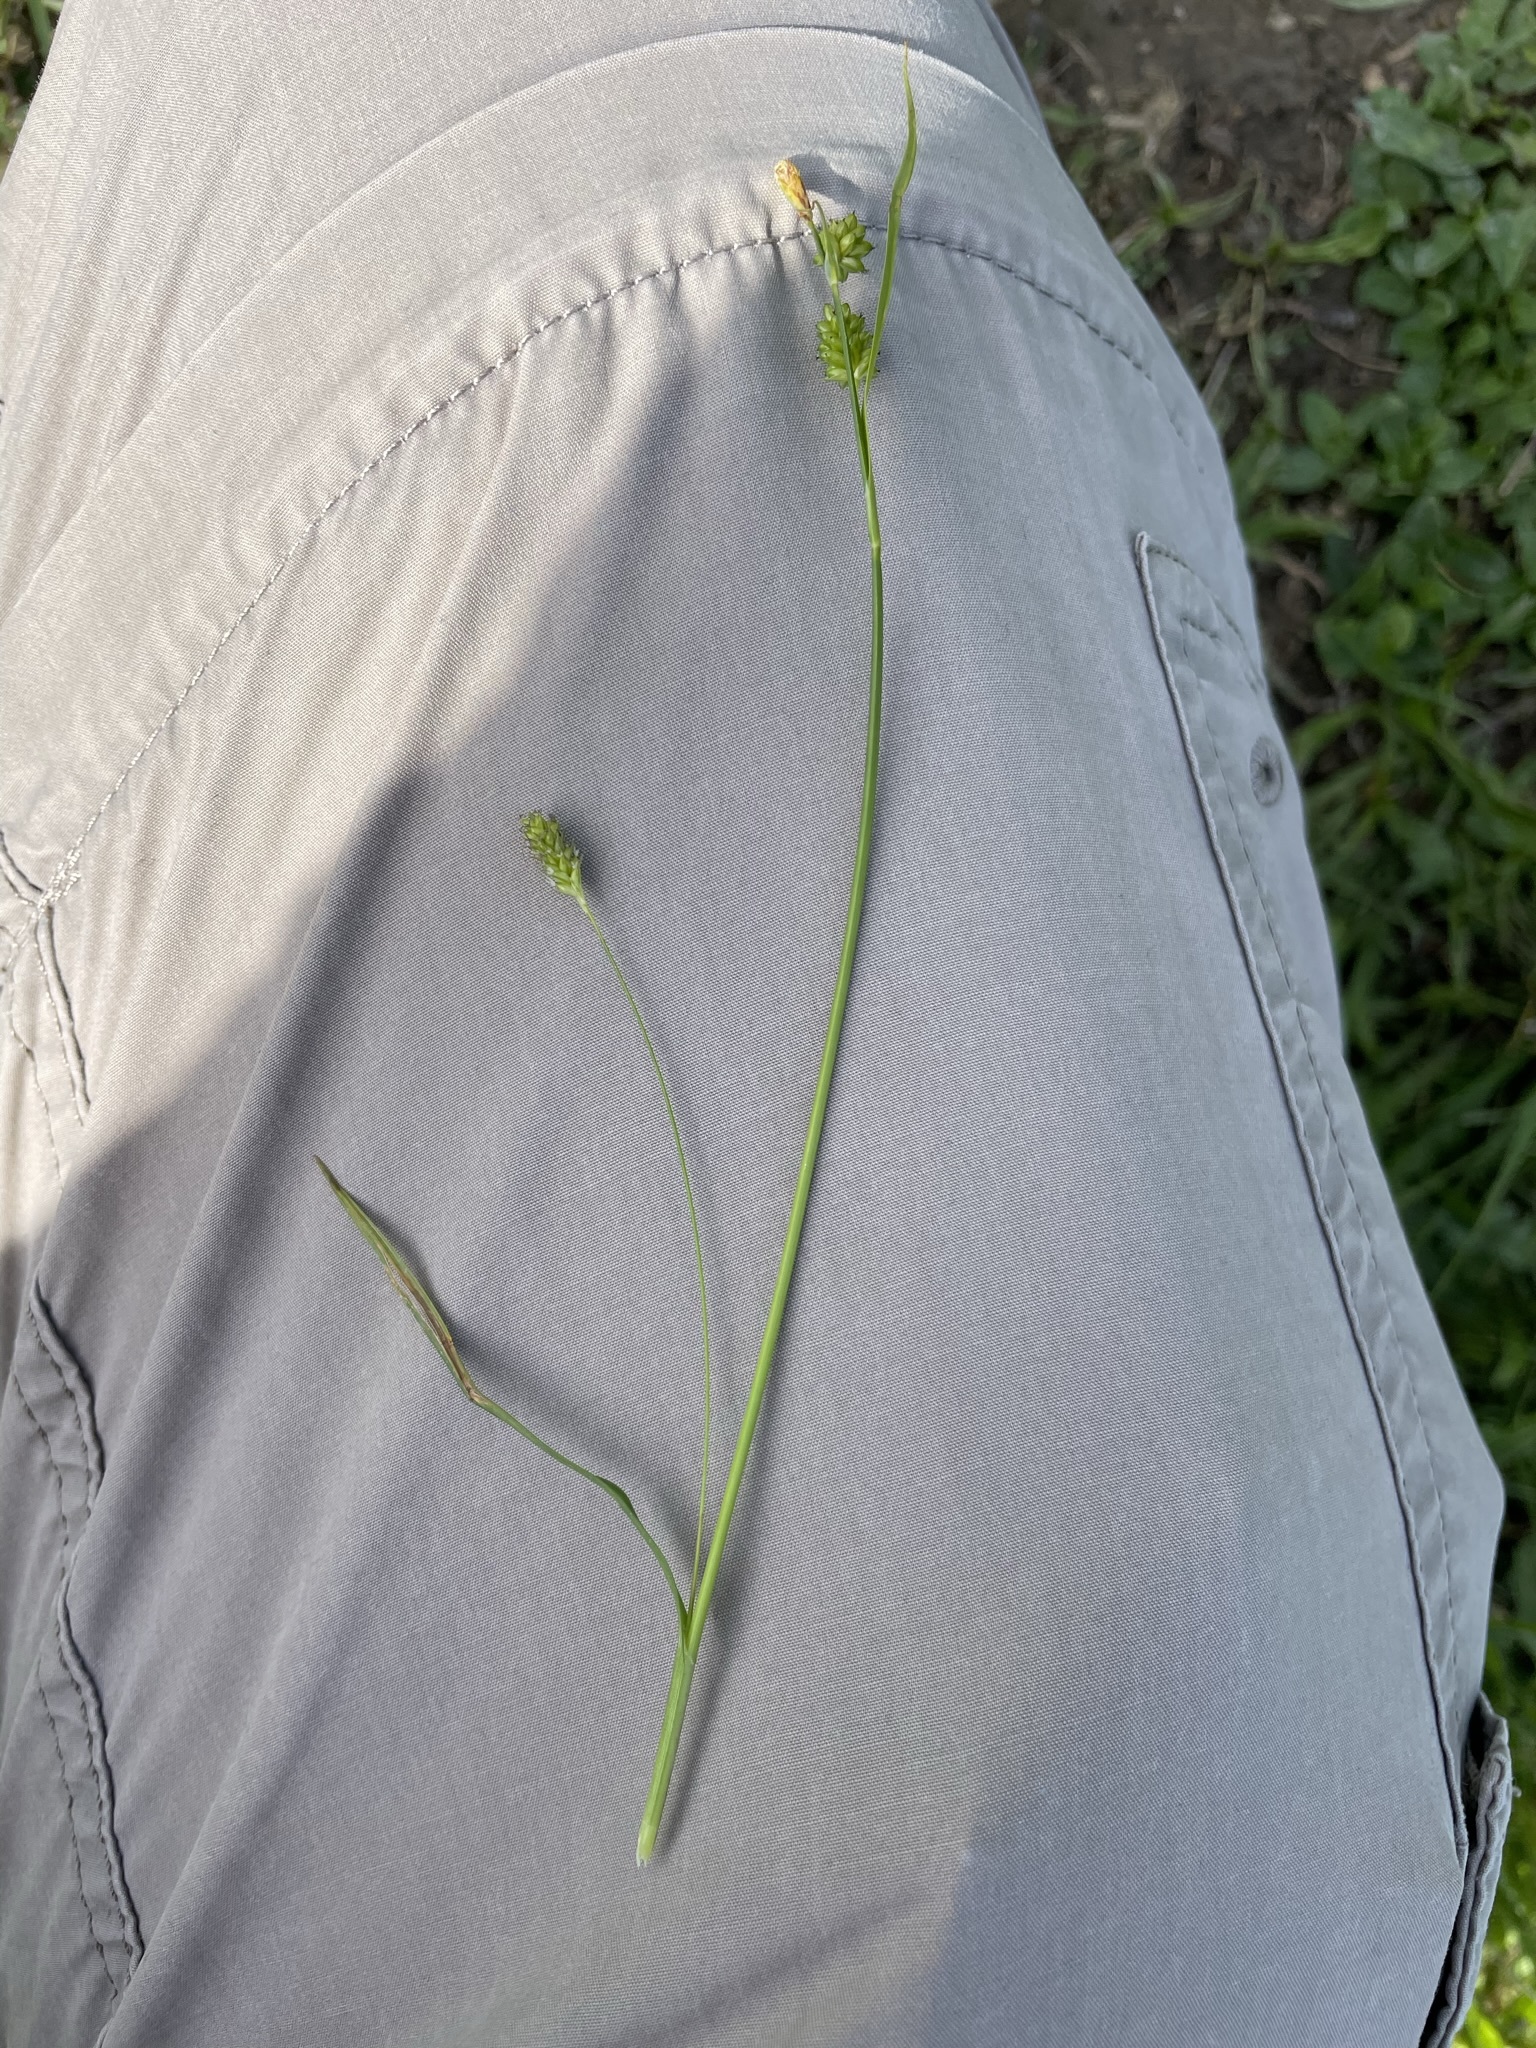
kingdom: Plantae
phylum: Tracheophyta
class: Liliopsida
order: Poales
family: Cyperaceae
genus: Carex
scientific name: Carex pallescens
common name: Pale sedge
